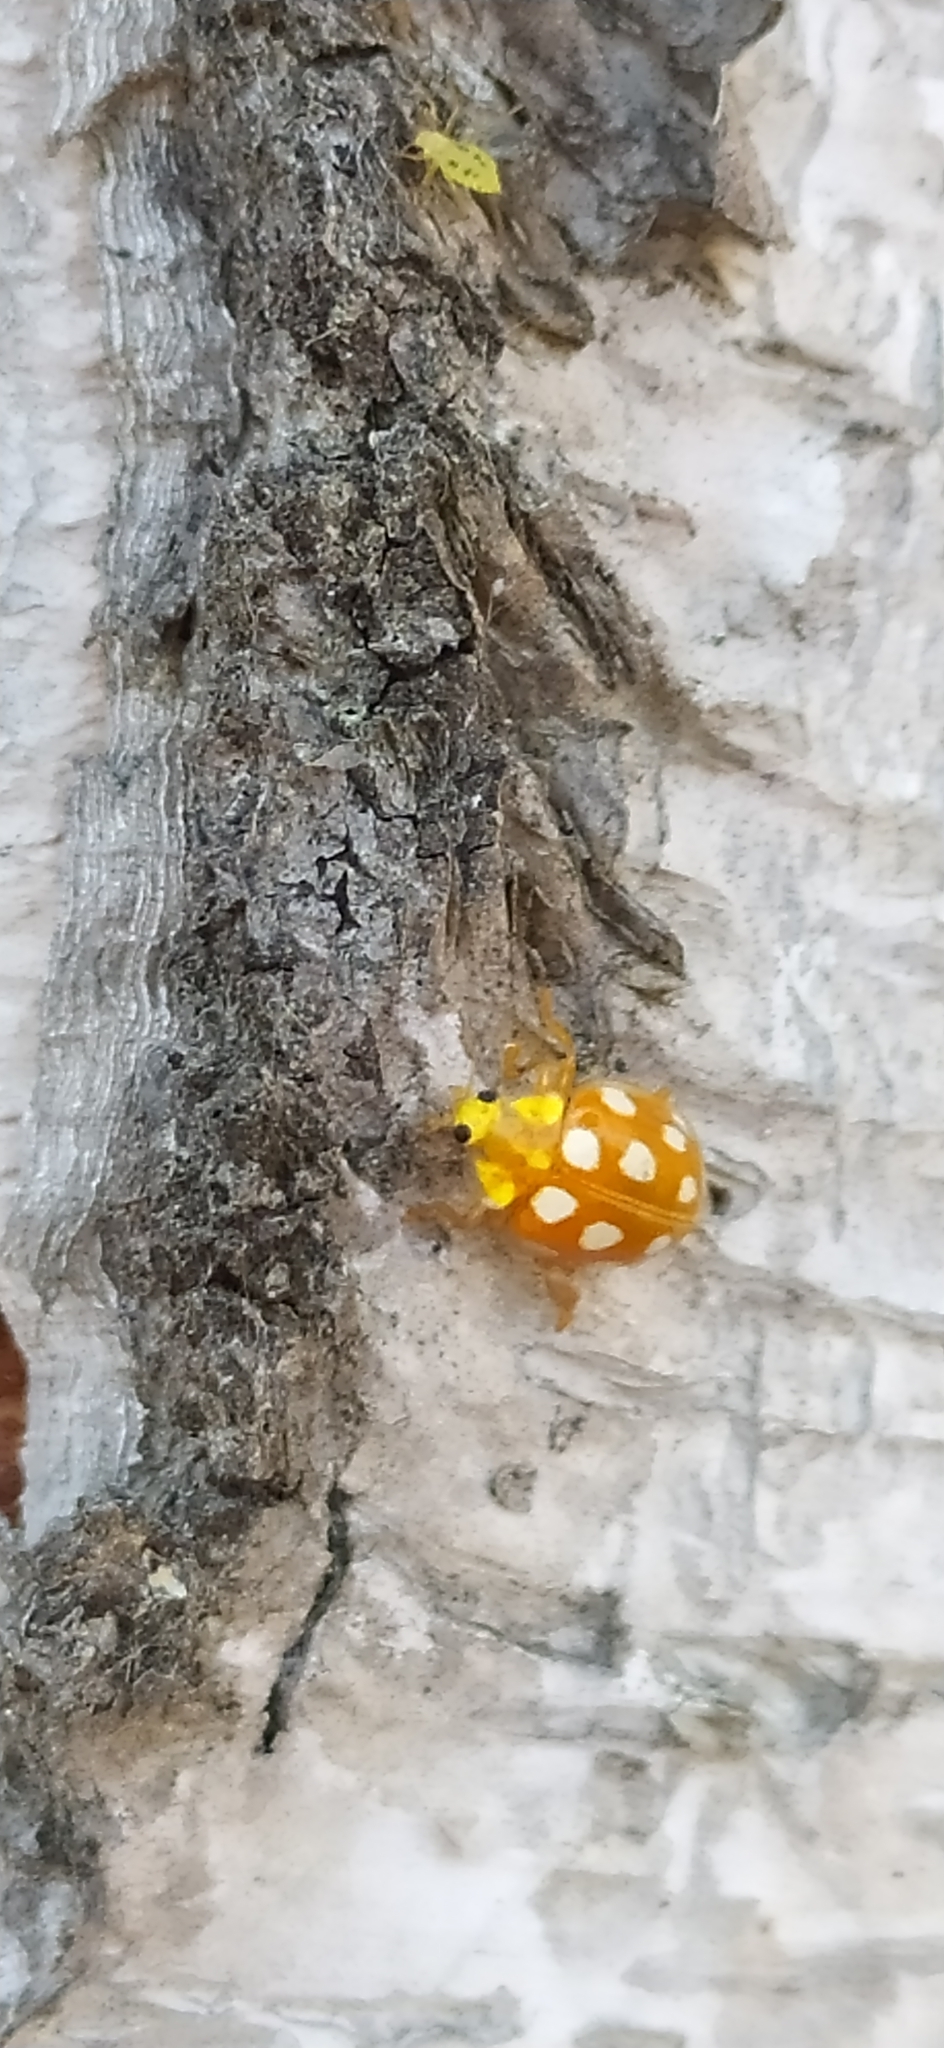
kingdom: Animalia
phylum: Arthropoda
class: Insecta
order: Coleoptera
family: Coccinellidae
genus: Halyzia
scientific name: Halyzia sedecimguttata
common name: Orange ladybird
